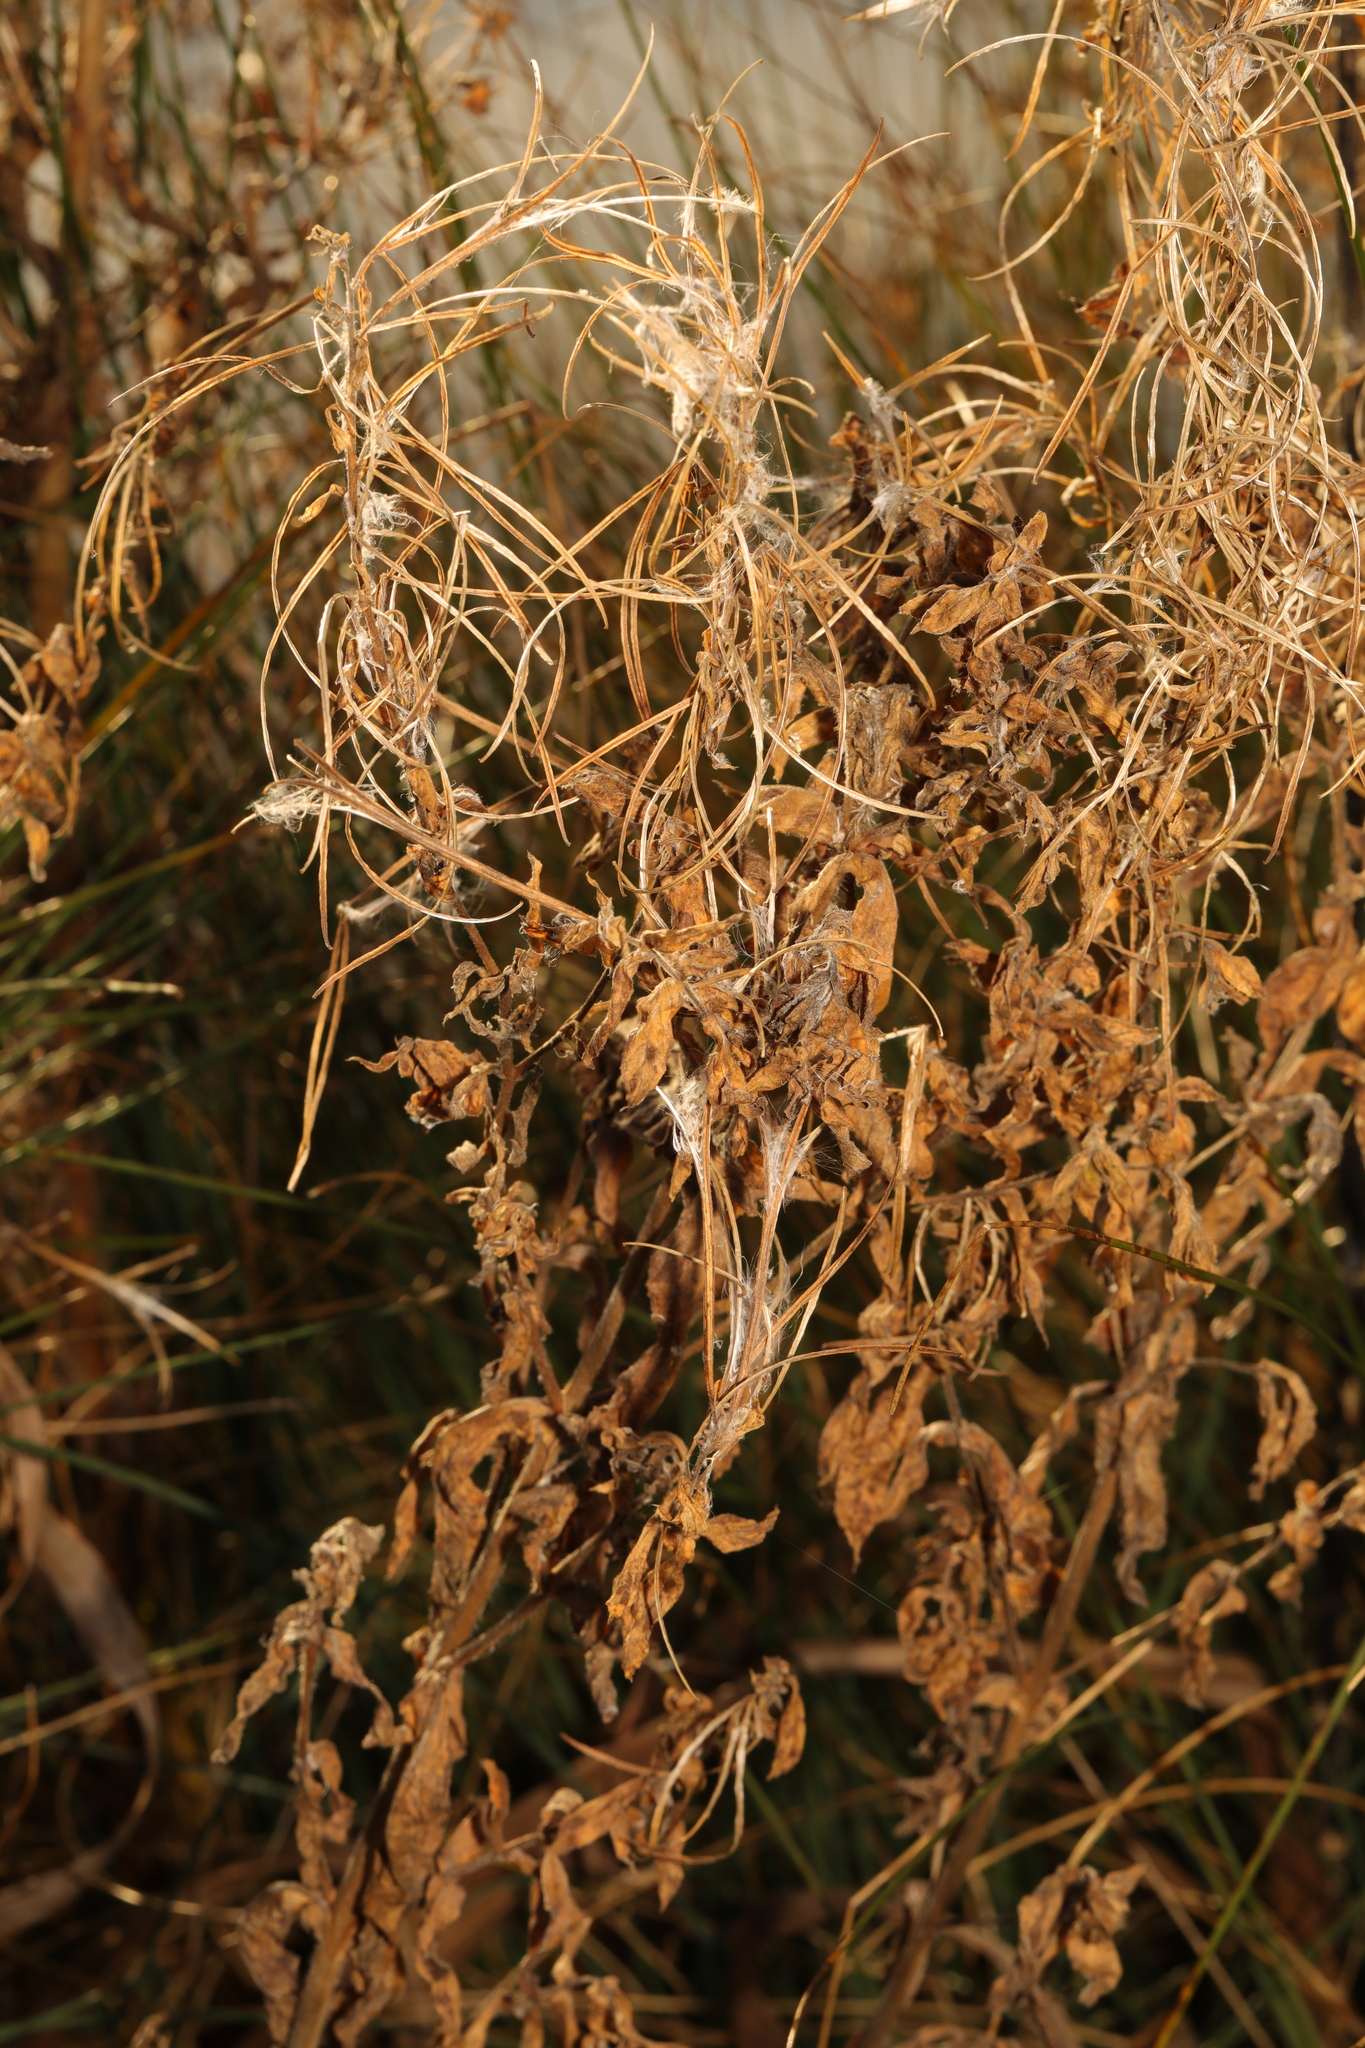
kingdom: Plantae
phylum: Tracheophyta
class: Magnoliopsida
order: Myrtales
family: Onagraceae
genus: Chamaenerion
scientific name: Chamaenerion angustifolium
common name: Fireweed
